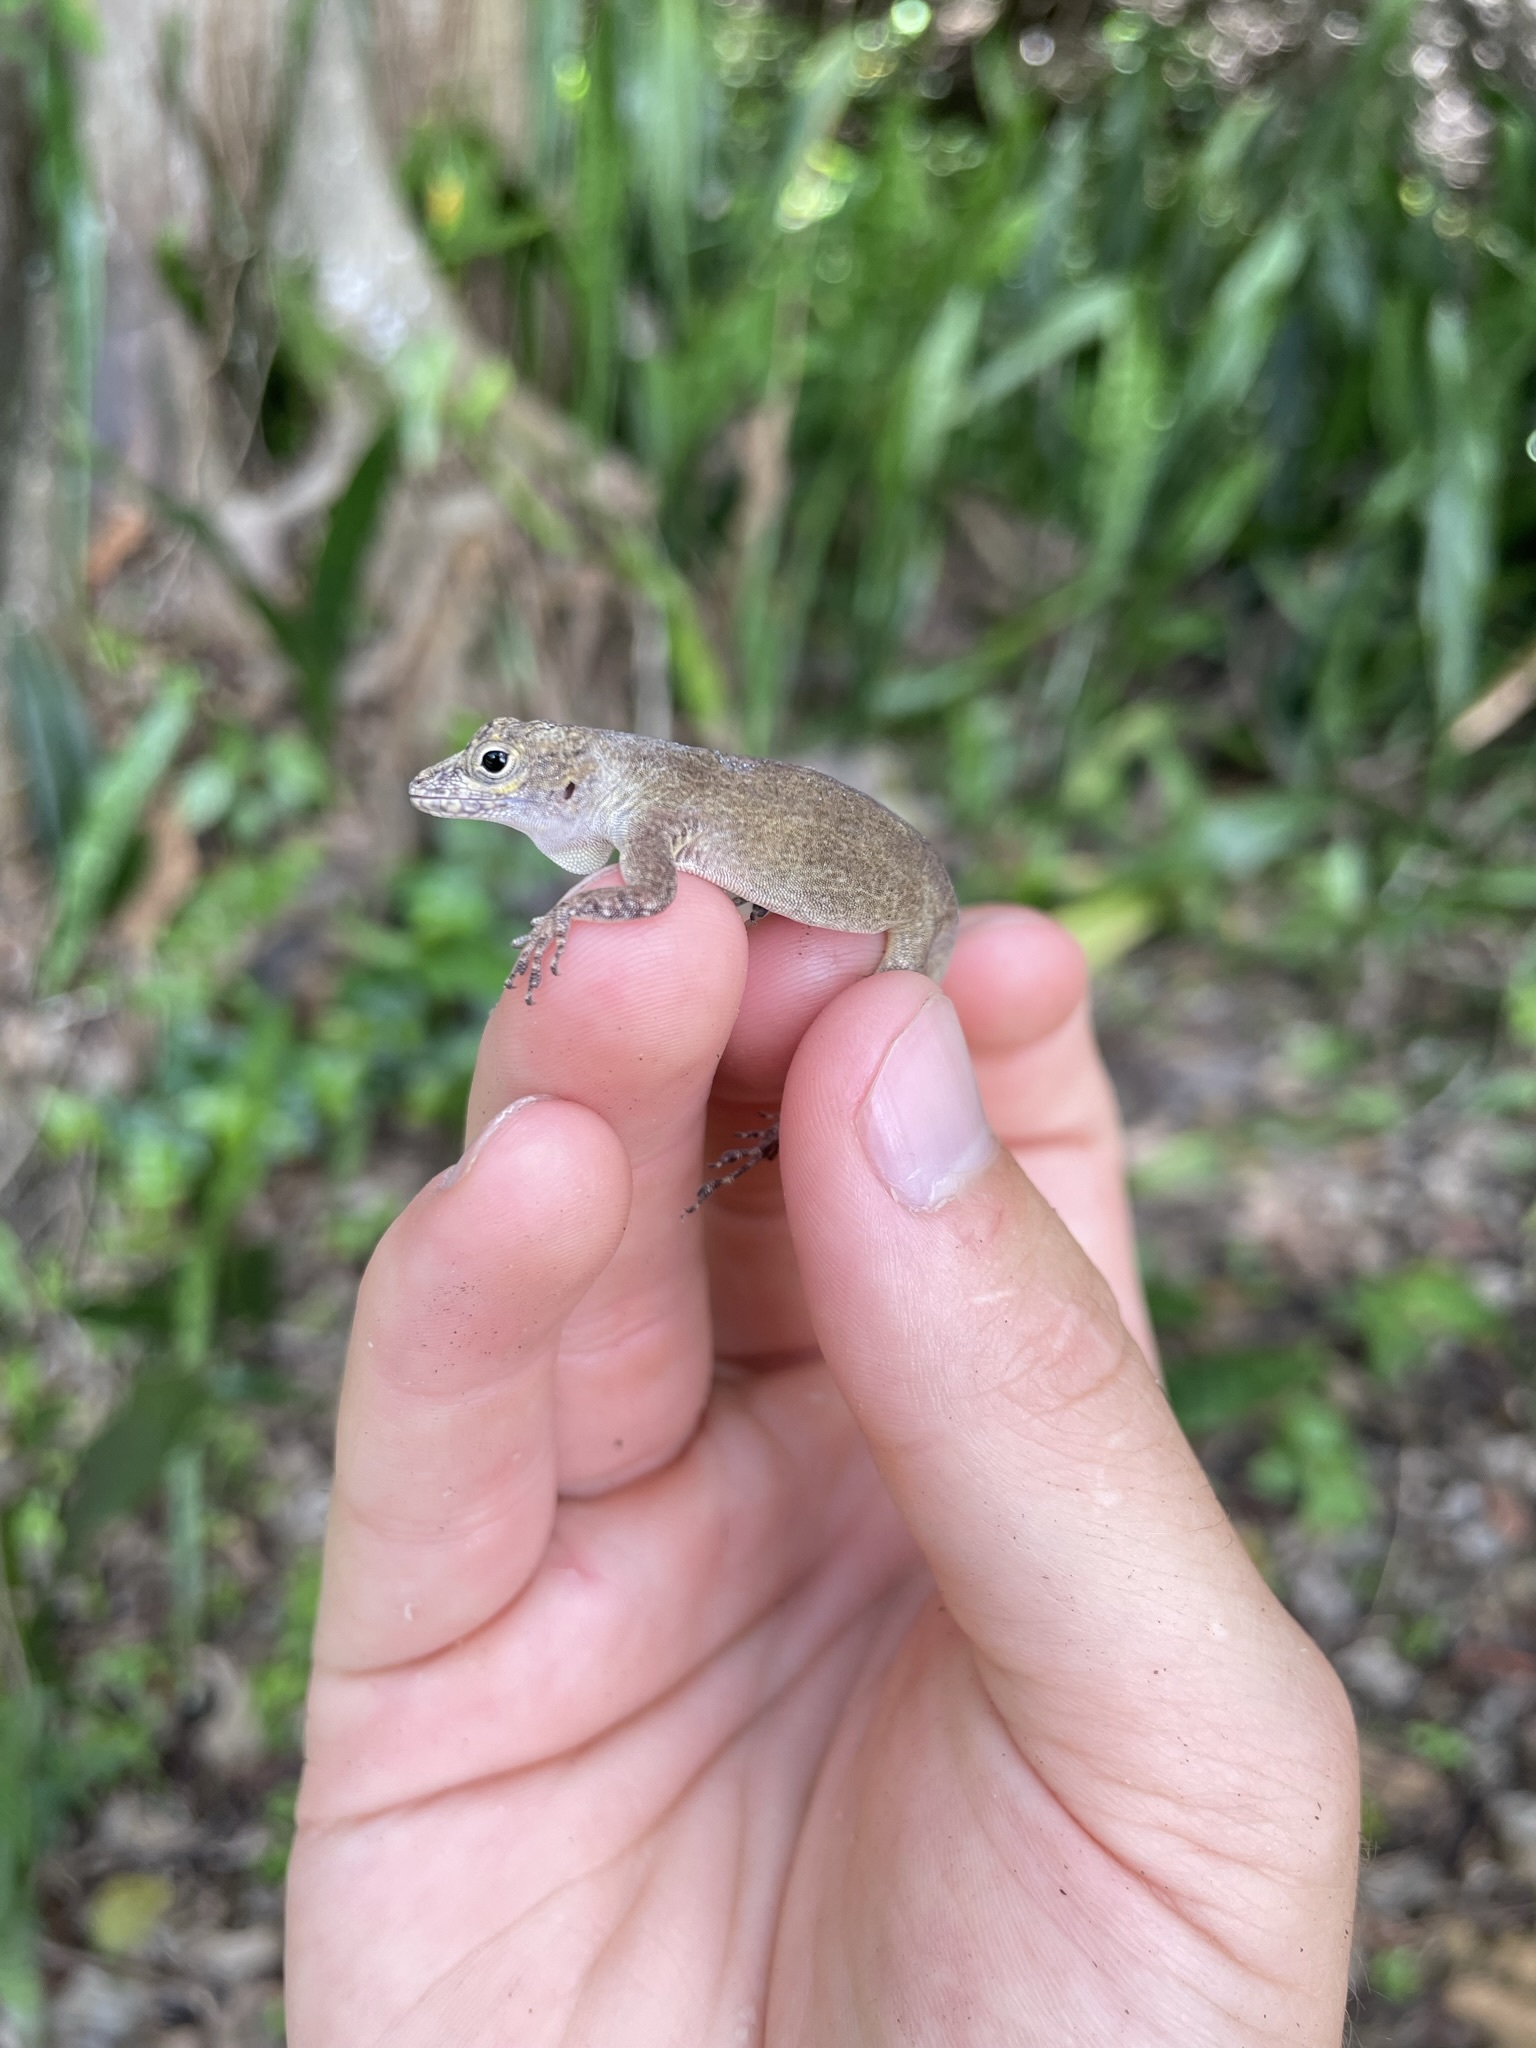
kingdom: Animalia
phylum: Chordata
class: Squamata
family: Dactyloidae
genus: Anolis
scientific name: Anolis distichus
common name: Bark anole
